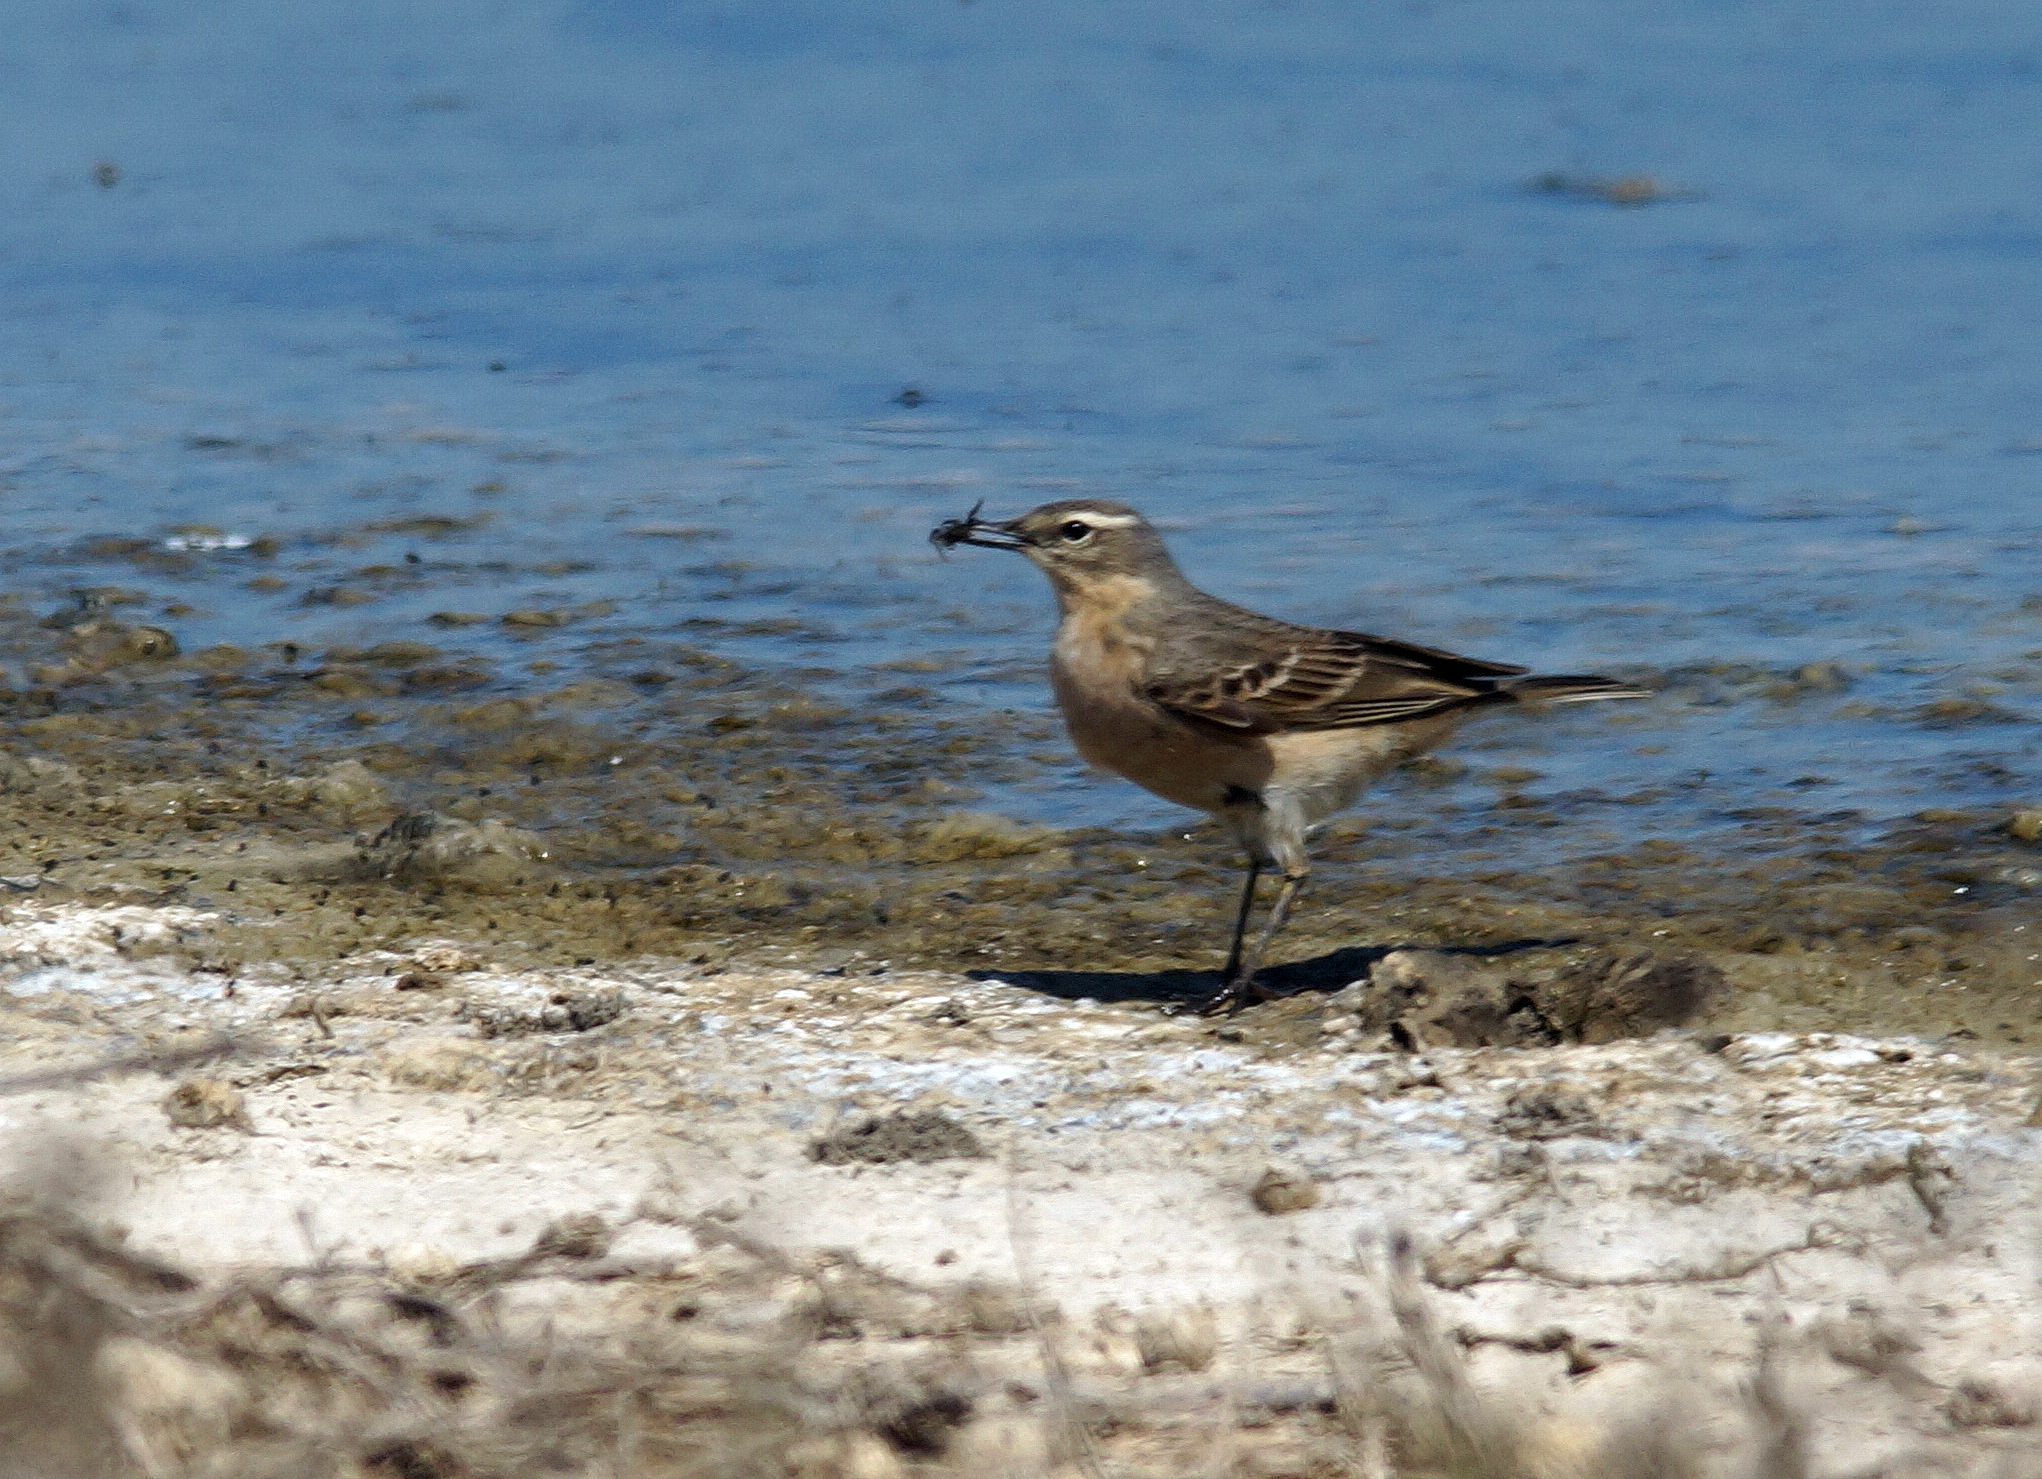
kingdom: Animalia
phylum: Chordata
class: Aves
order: Passeriformes
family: Motacillidae
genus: Anthus
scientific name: Anthus spinoletta
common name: Water pipit
